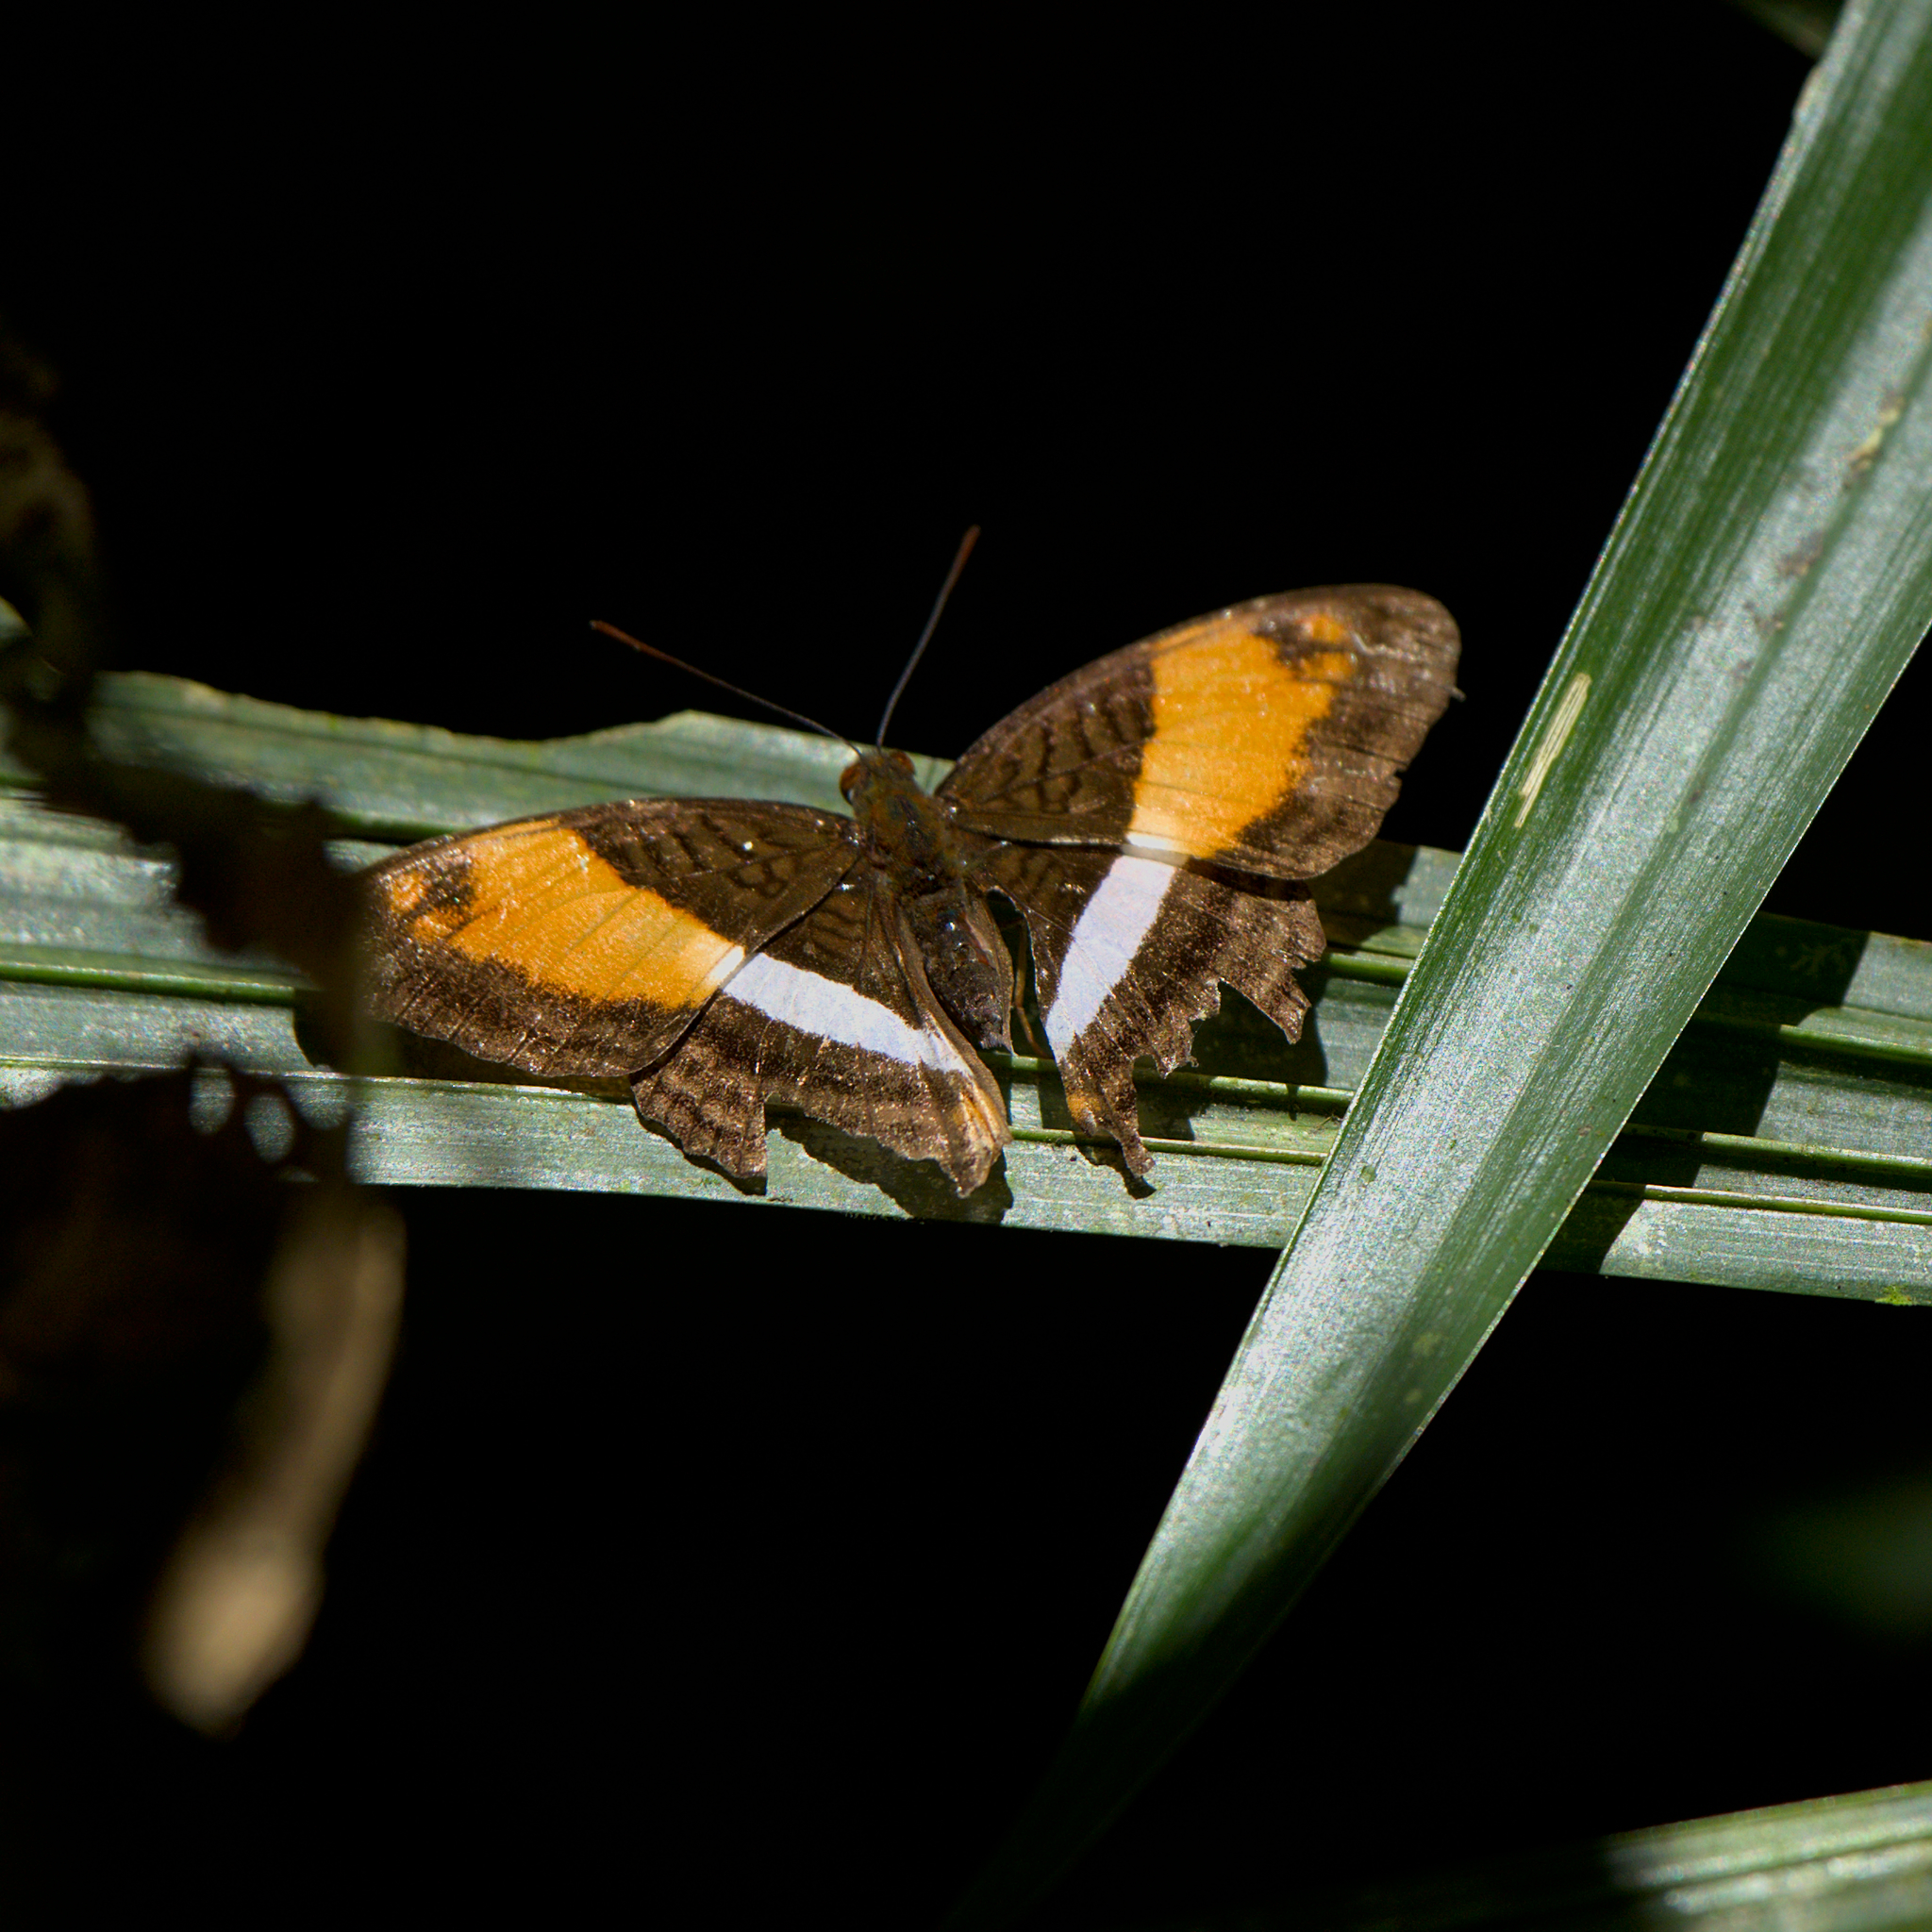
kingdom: Animalia
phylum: Arthropoda
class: Insecta
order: Lepidoptera
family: Nymphalidae
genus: Limenitis
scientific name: Limenitis cocala
